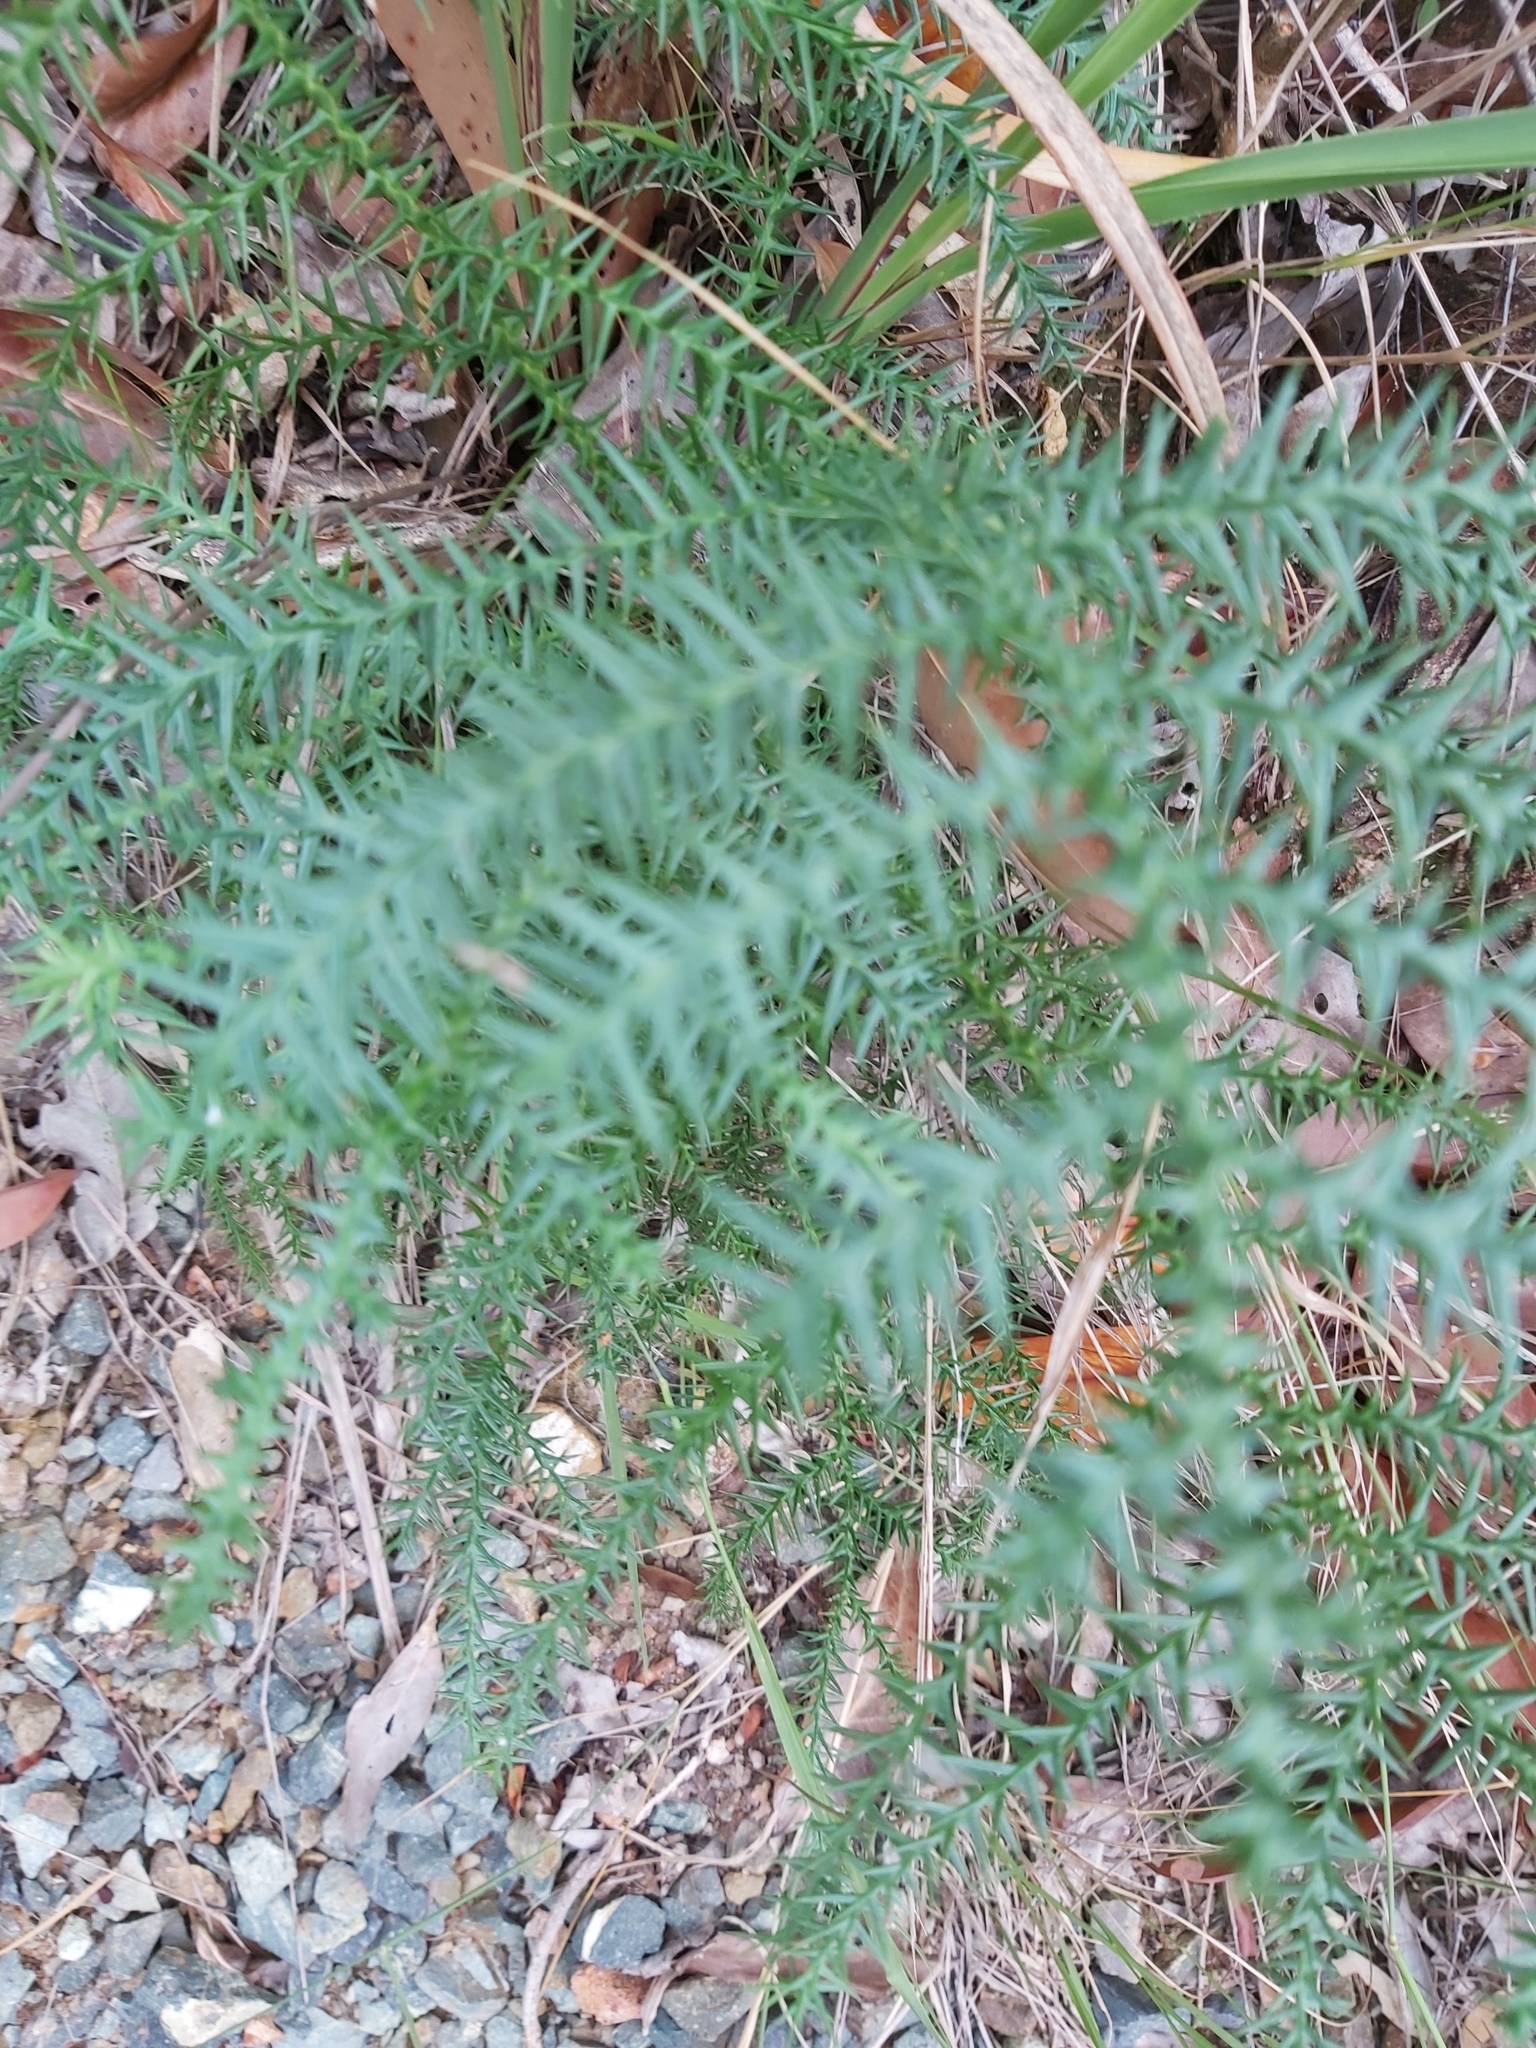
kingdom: Plantae
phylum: Tracheophyta
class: Pinopsida
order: Pinales
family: Araucariaceae
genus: Araucaria
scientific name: Araucaria cunninghamii
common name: Colonial pine
